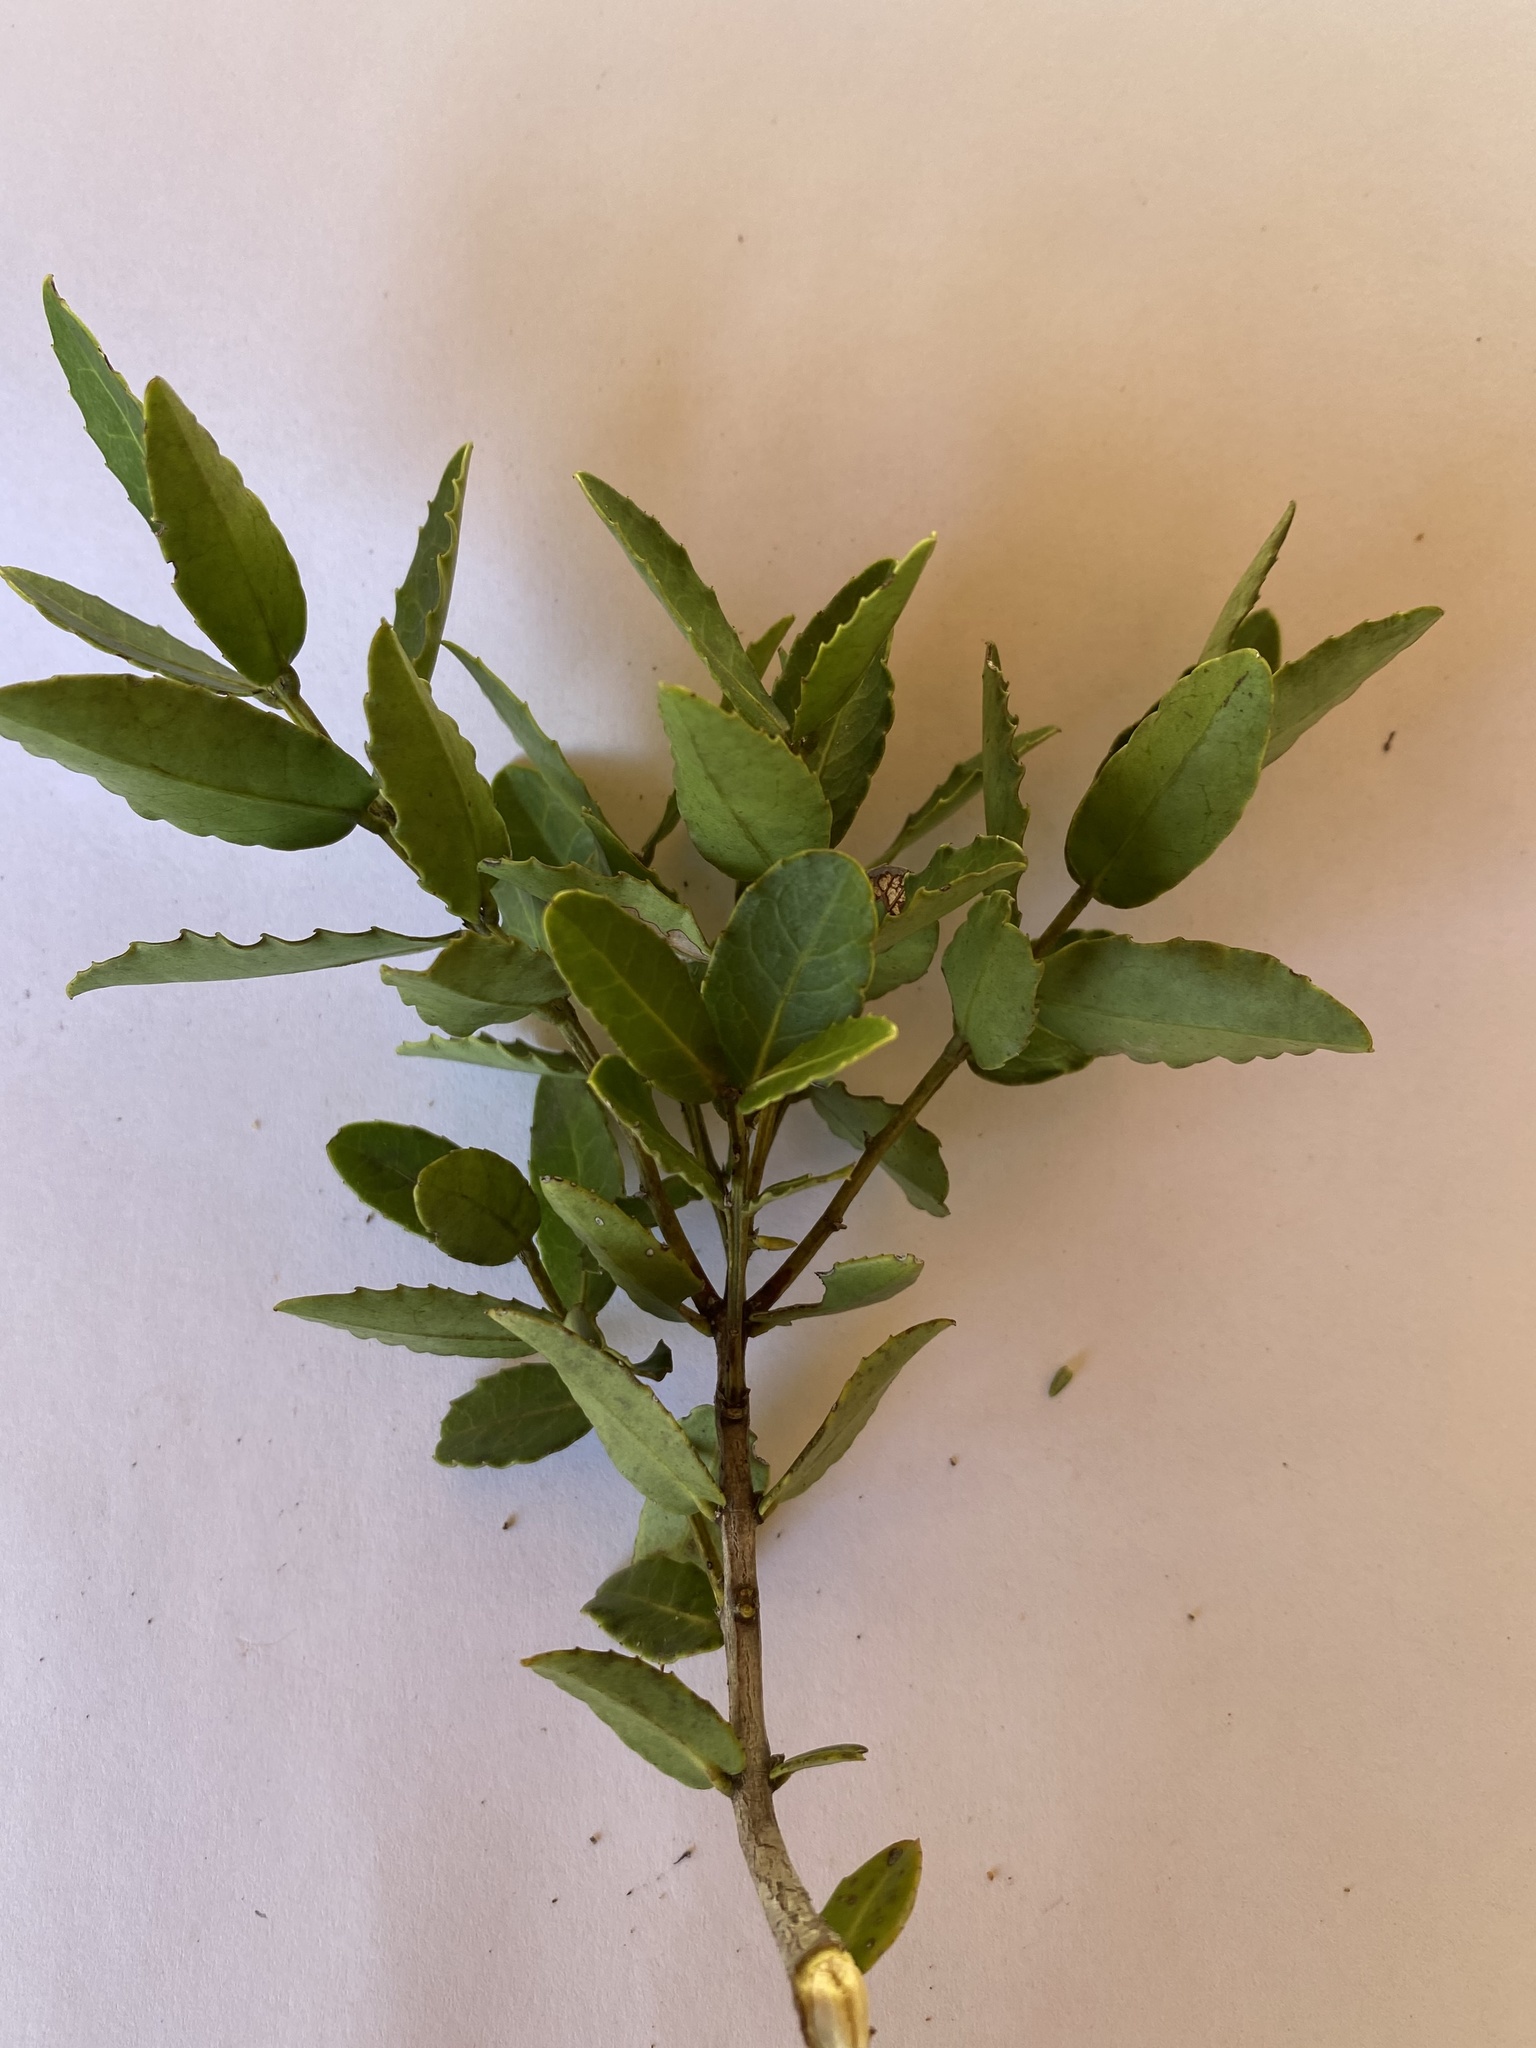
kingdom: Plantae
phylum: Tracheophyta
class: Magnoliopsida
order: Celastrales
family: Celastraceae
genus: Lauridia
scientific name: Lauridia tetragona
